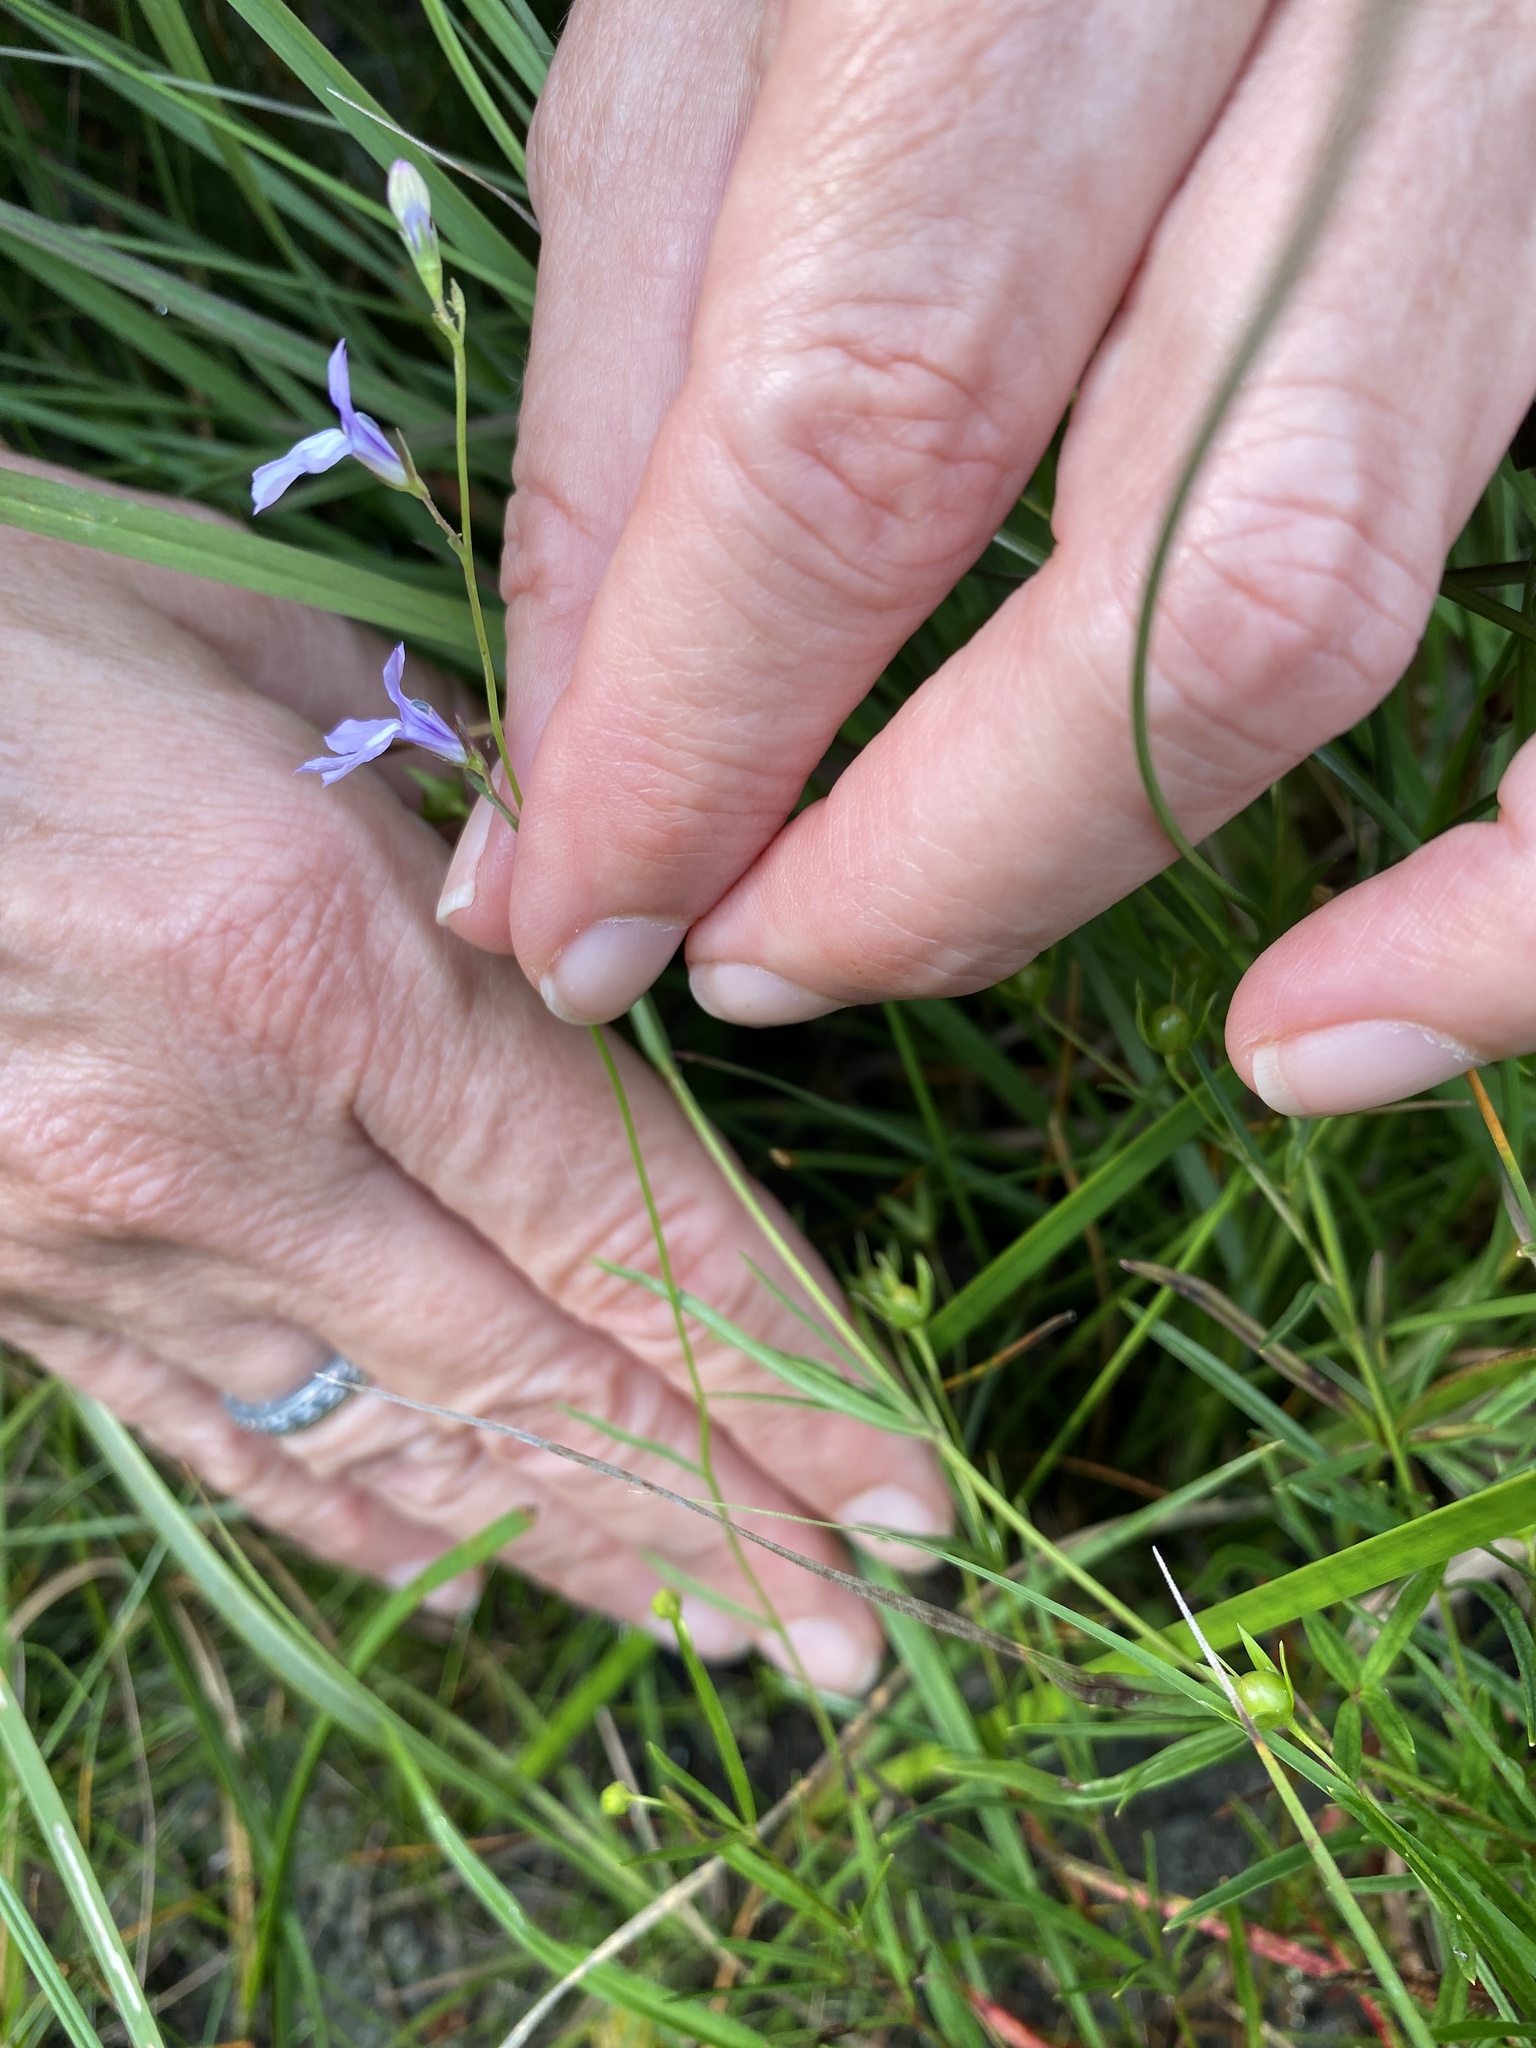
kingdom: Plantae
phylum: Tracheophyta
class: Magnoliopsida
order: Asterales
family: Campanulaceae
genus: Lobelia
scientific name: Lobelia kalmii
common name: Kalm's lobelia
